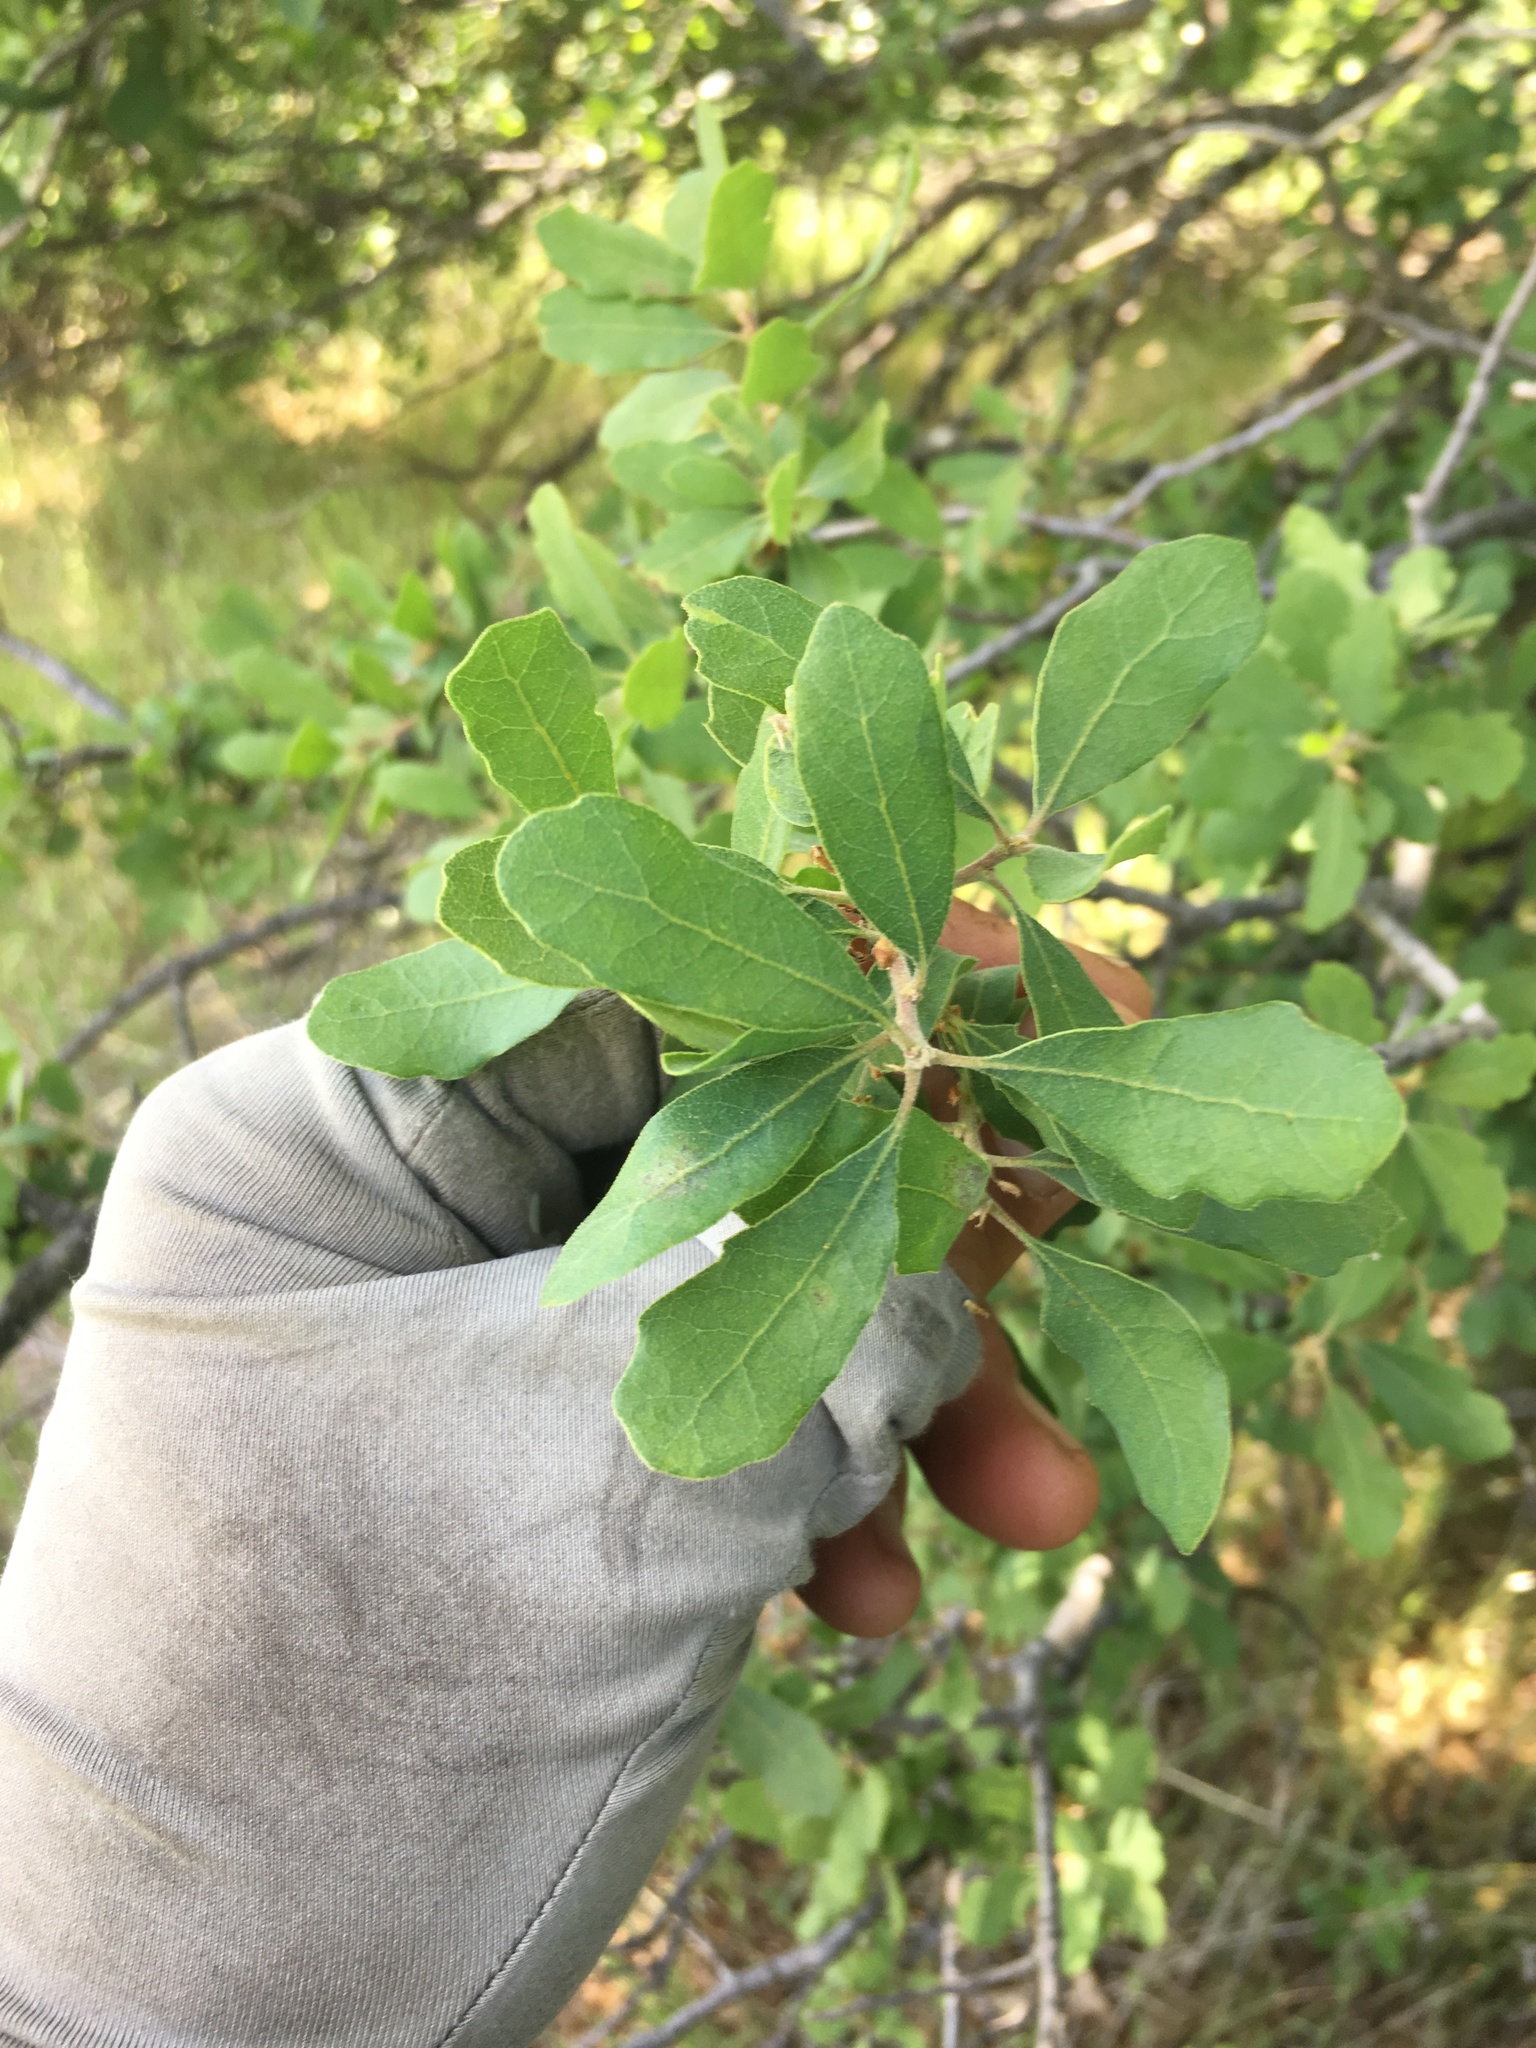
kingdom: Plantae
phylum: Tracheophyta
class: Magnoliopsida
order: Fagales
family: Fagaceae
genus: Quercus
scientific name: Quercus douglasii
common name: Blue oak
